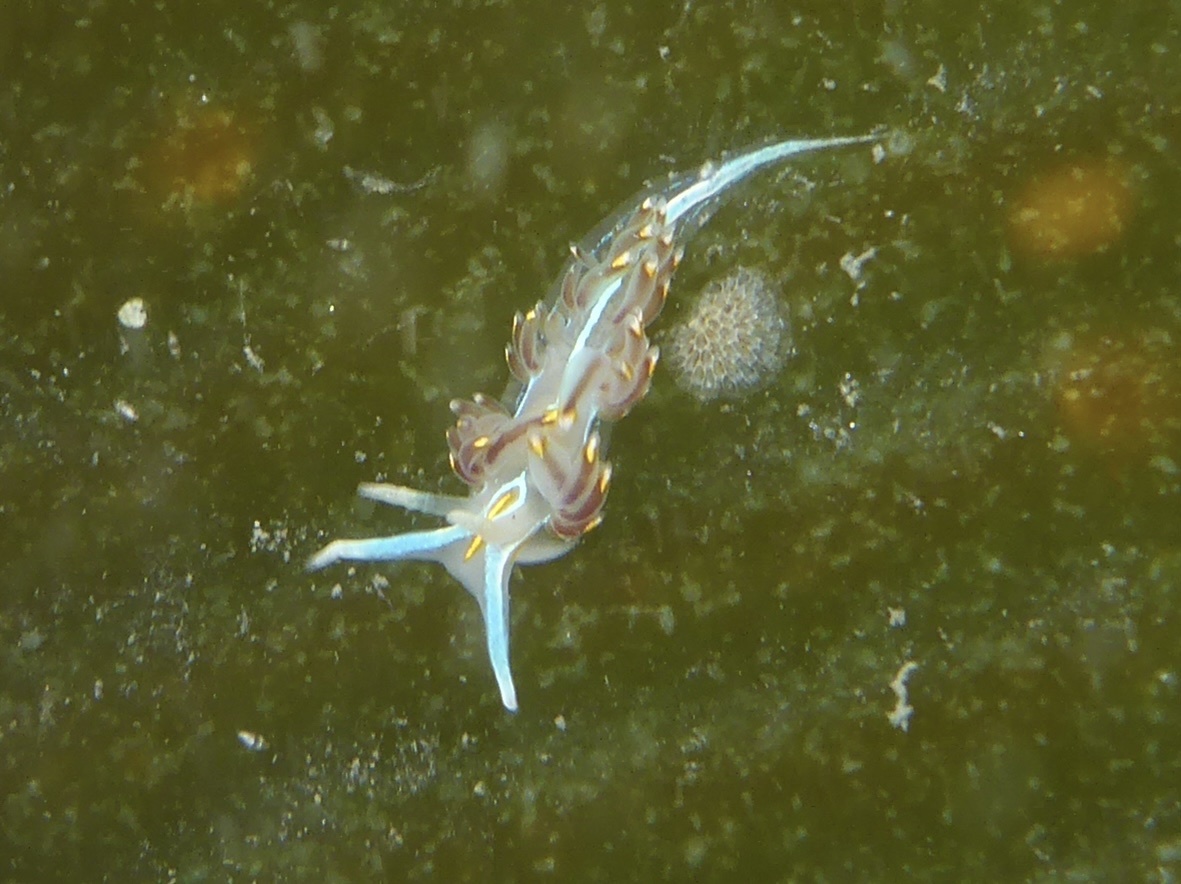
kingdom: Animalia
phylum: Mollusca
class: Gastropoda
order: Nudibranchia
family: Myrrhinidae
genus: Hermissenda
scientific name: Hermissenda opalescens
